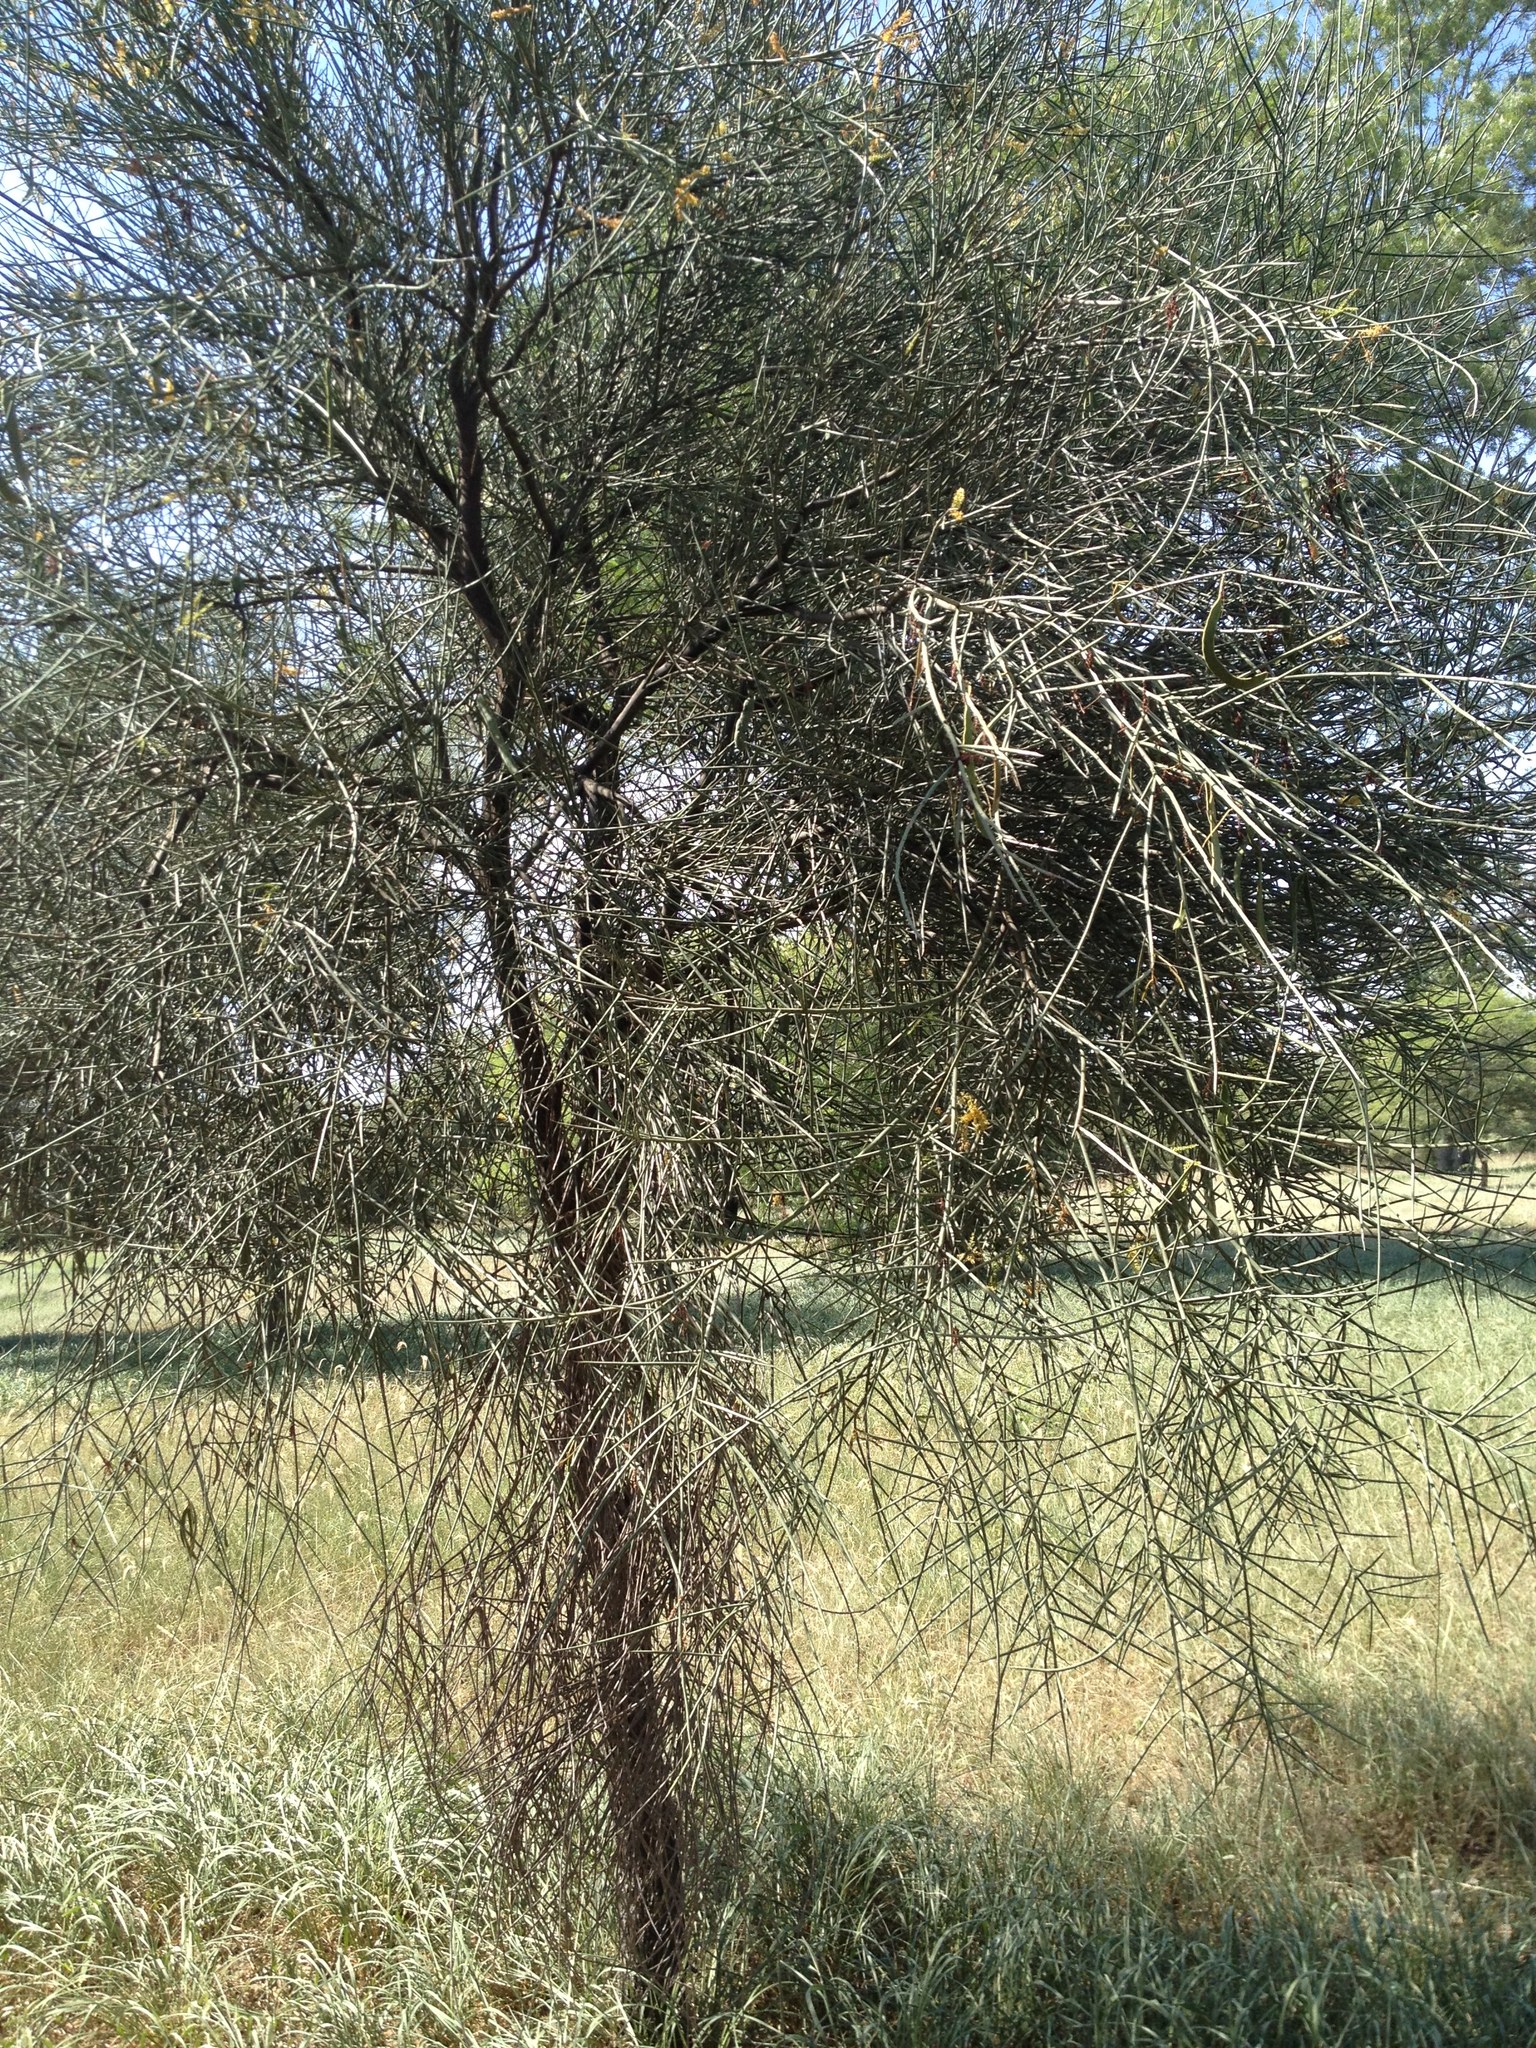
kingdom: Plantae
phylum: Tracheophyta
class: Magnoliopsida
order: Fabales
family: Fabaceae
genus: Prosopis
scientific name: Prosopis kuntzei
